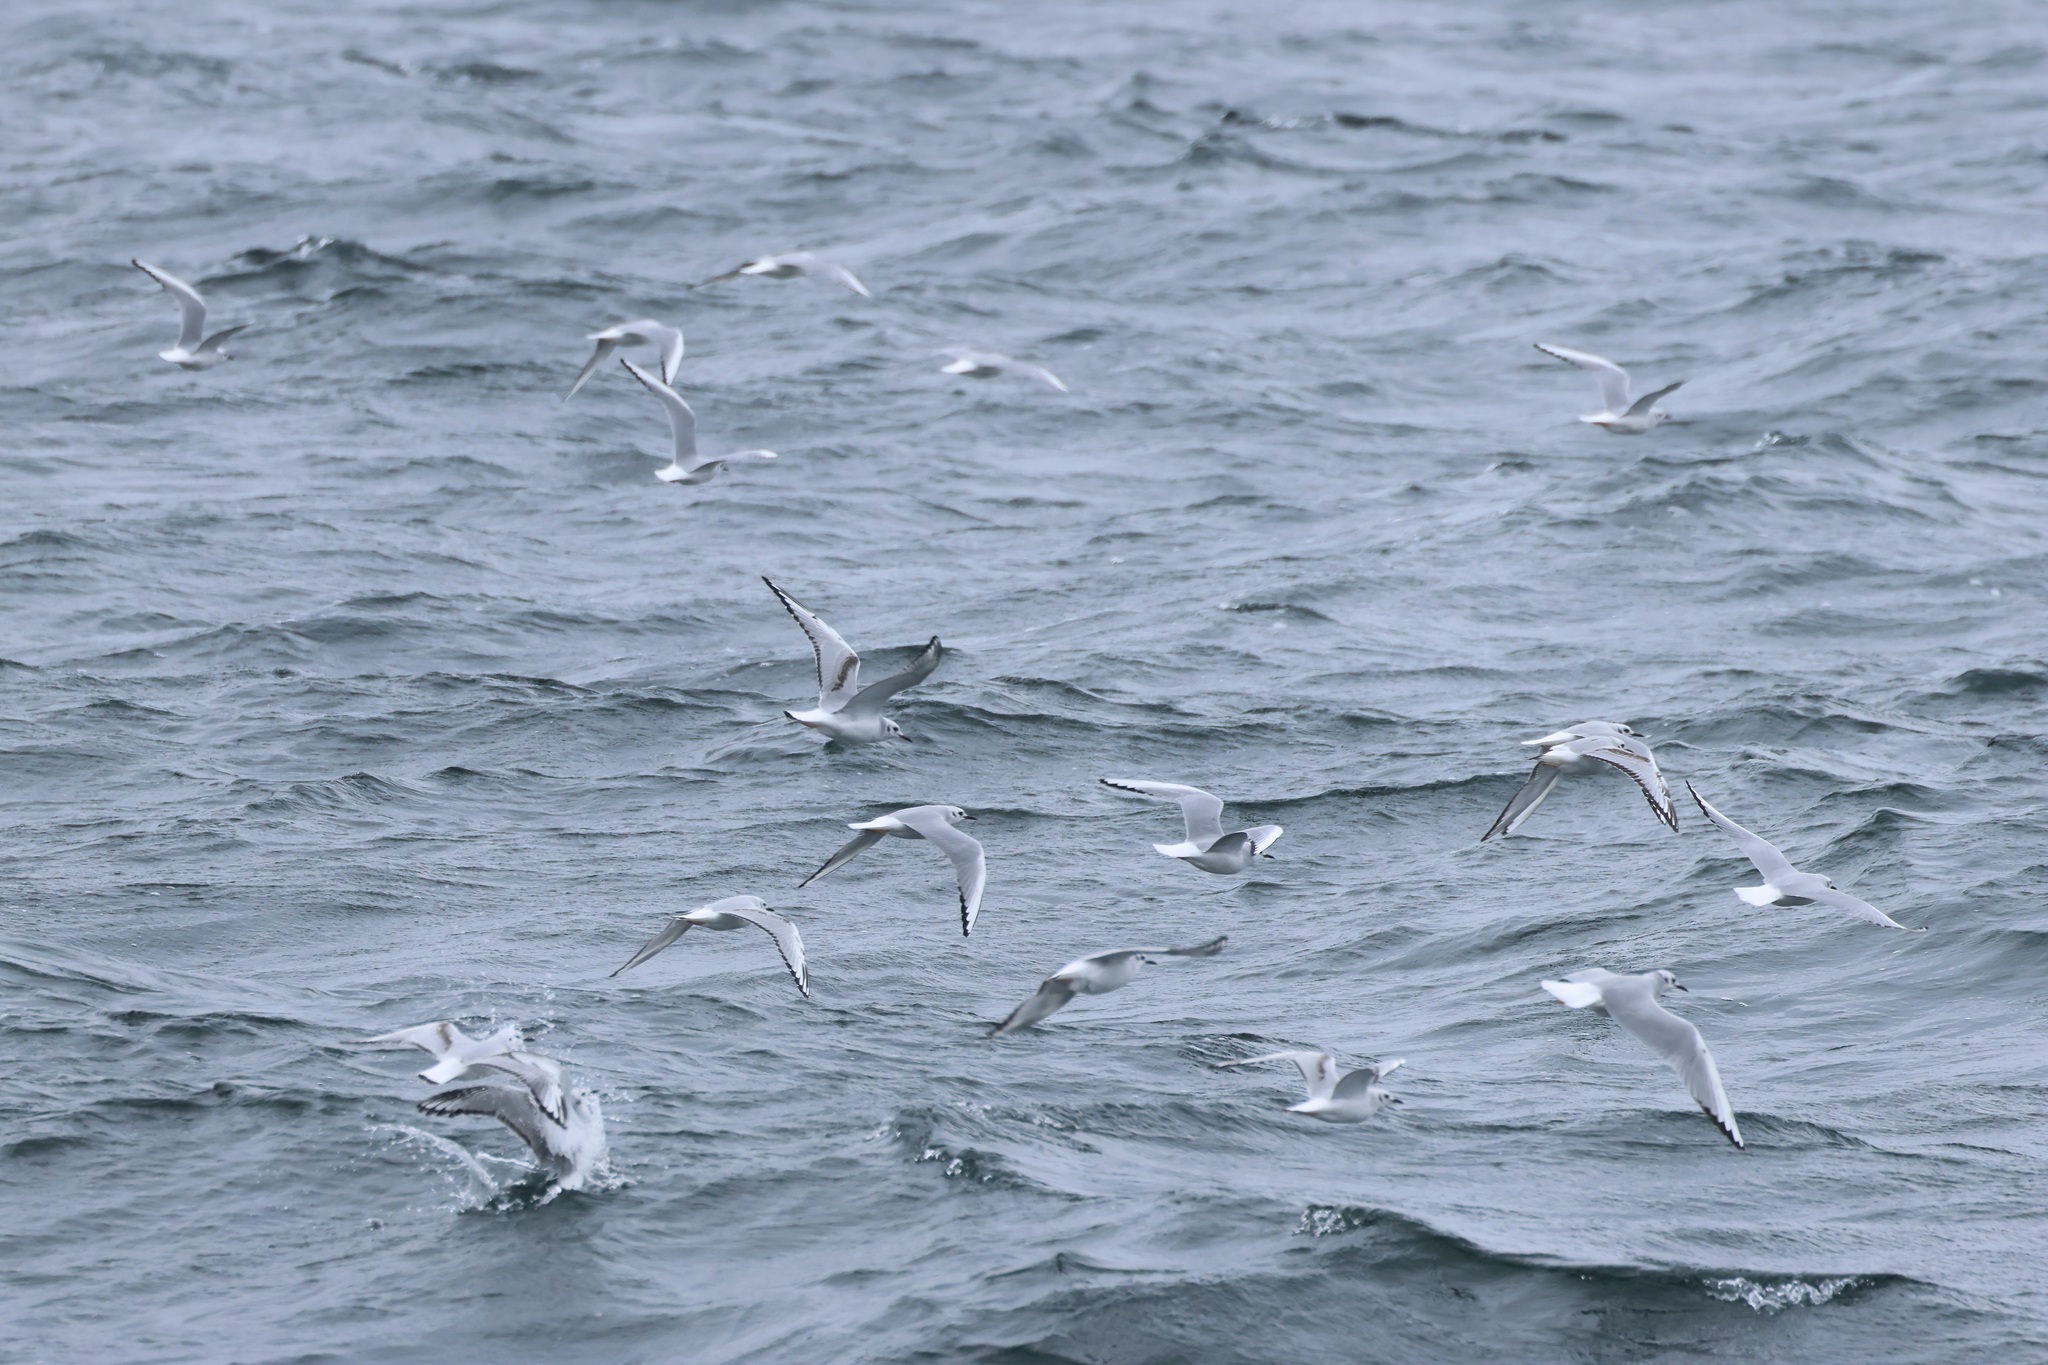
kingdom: Animalia
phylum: Chordata
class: Aves
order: Charadriiformes
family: Laridae
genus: Chroicocephalus
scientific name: Chroicocephalus philadelphia
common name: Bonaparte's gull
